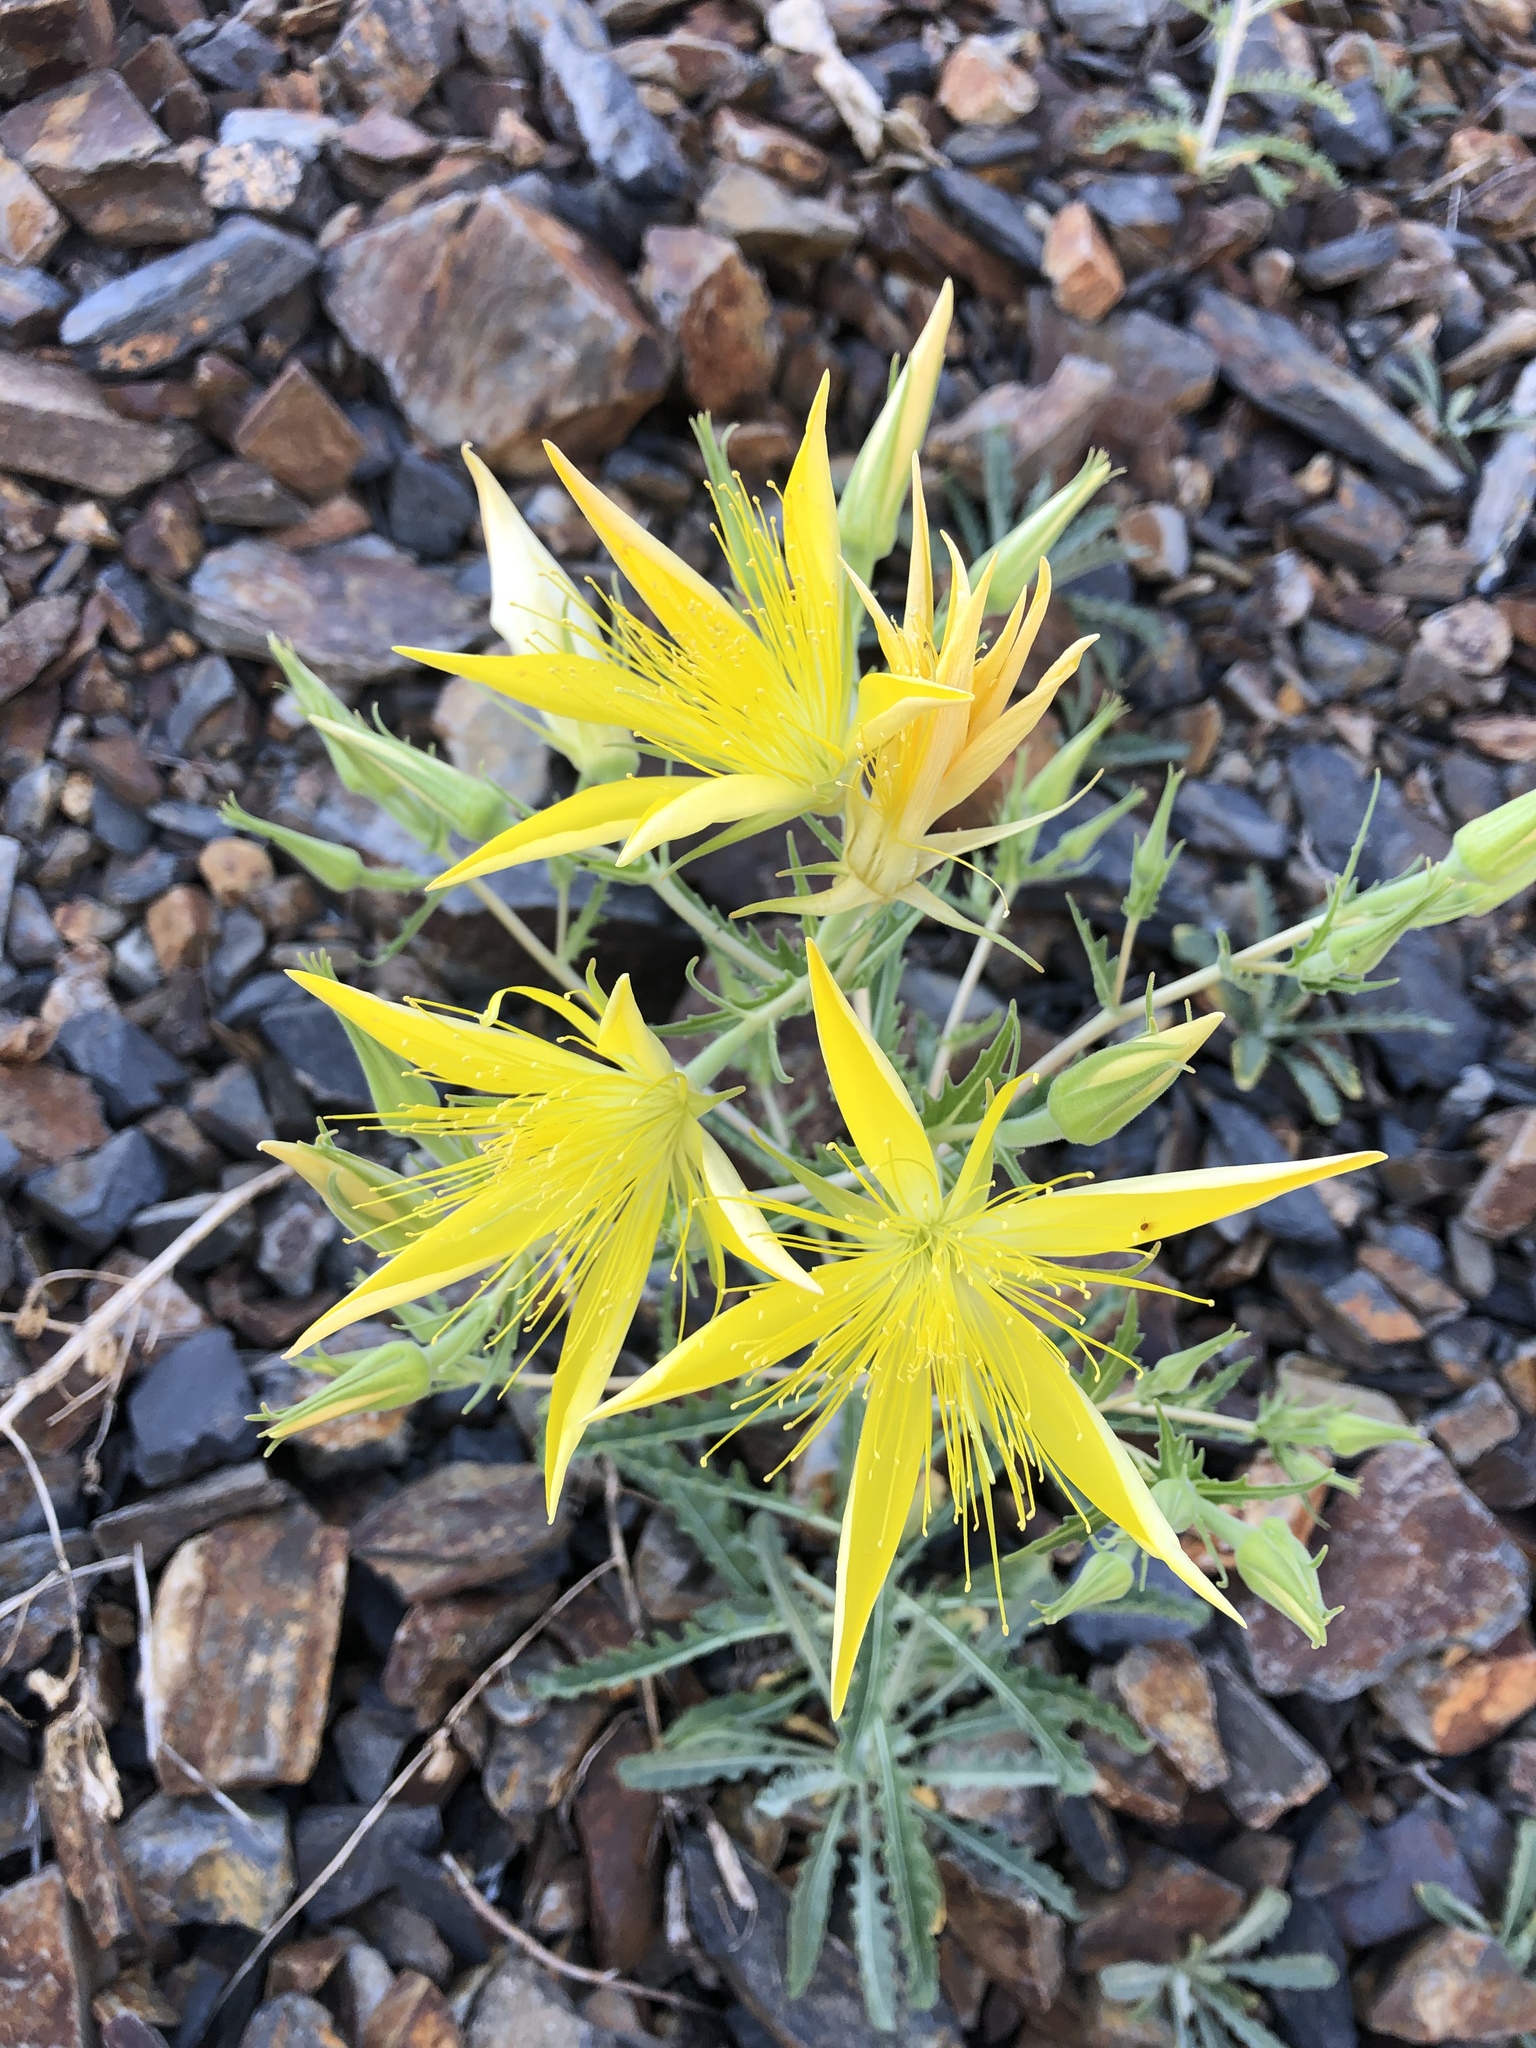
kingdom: Plantae
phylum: Tracheophyta
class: Magnoliopsida
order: Cornales
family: Loasaceae
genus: Mentzelia
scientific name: Mentzelia laevicaulis
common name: Smooth-stem blazingstar
